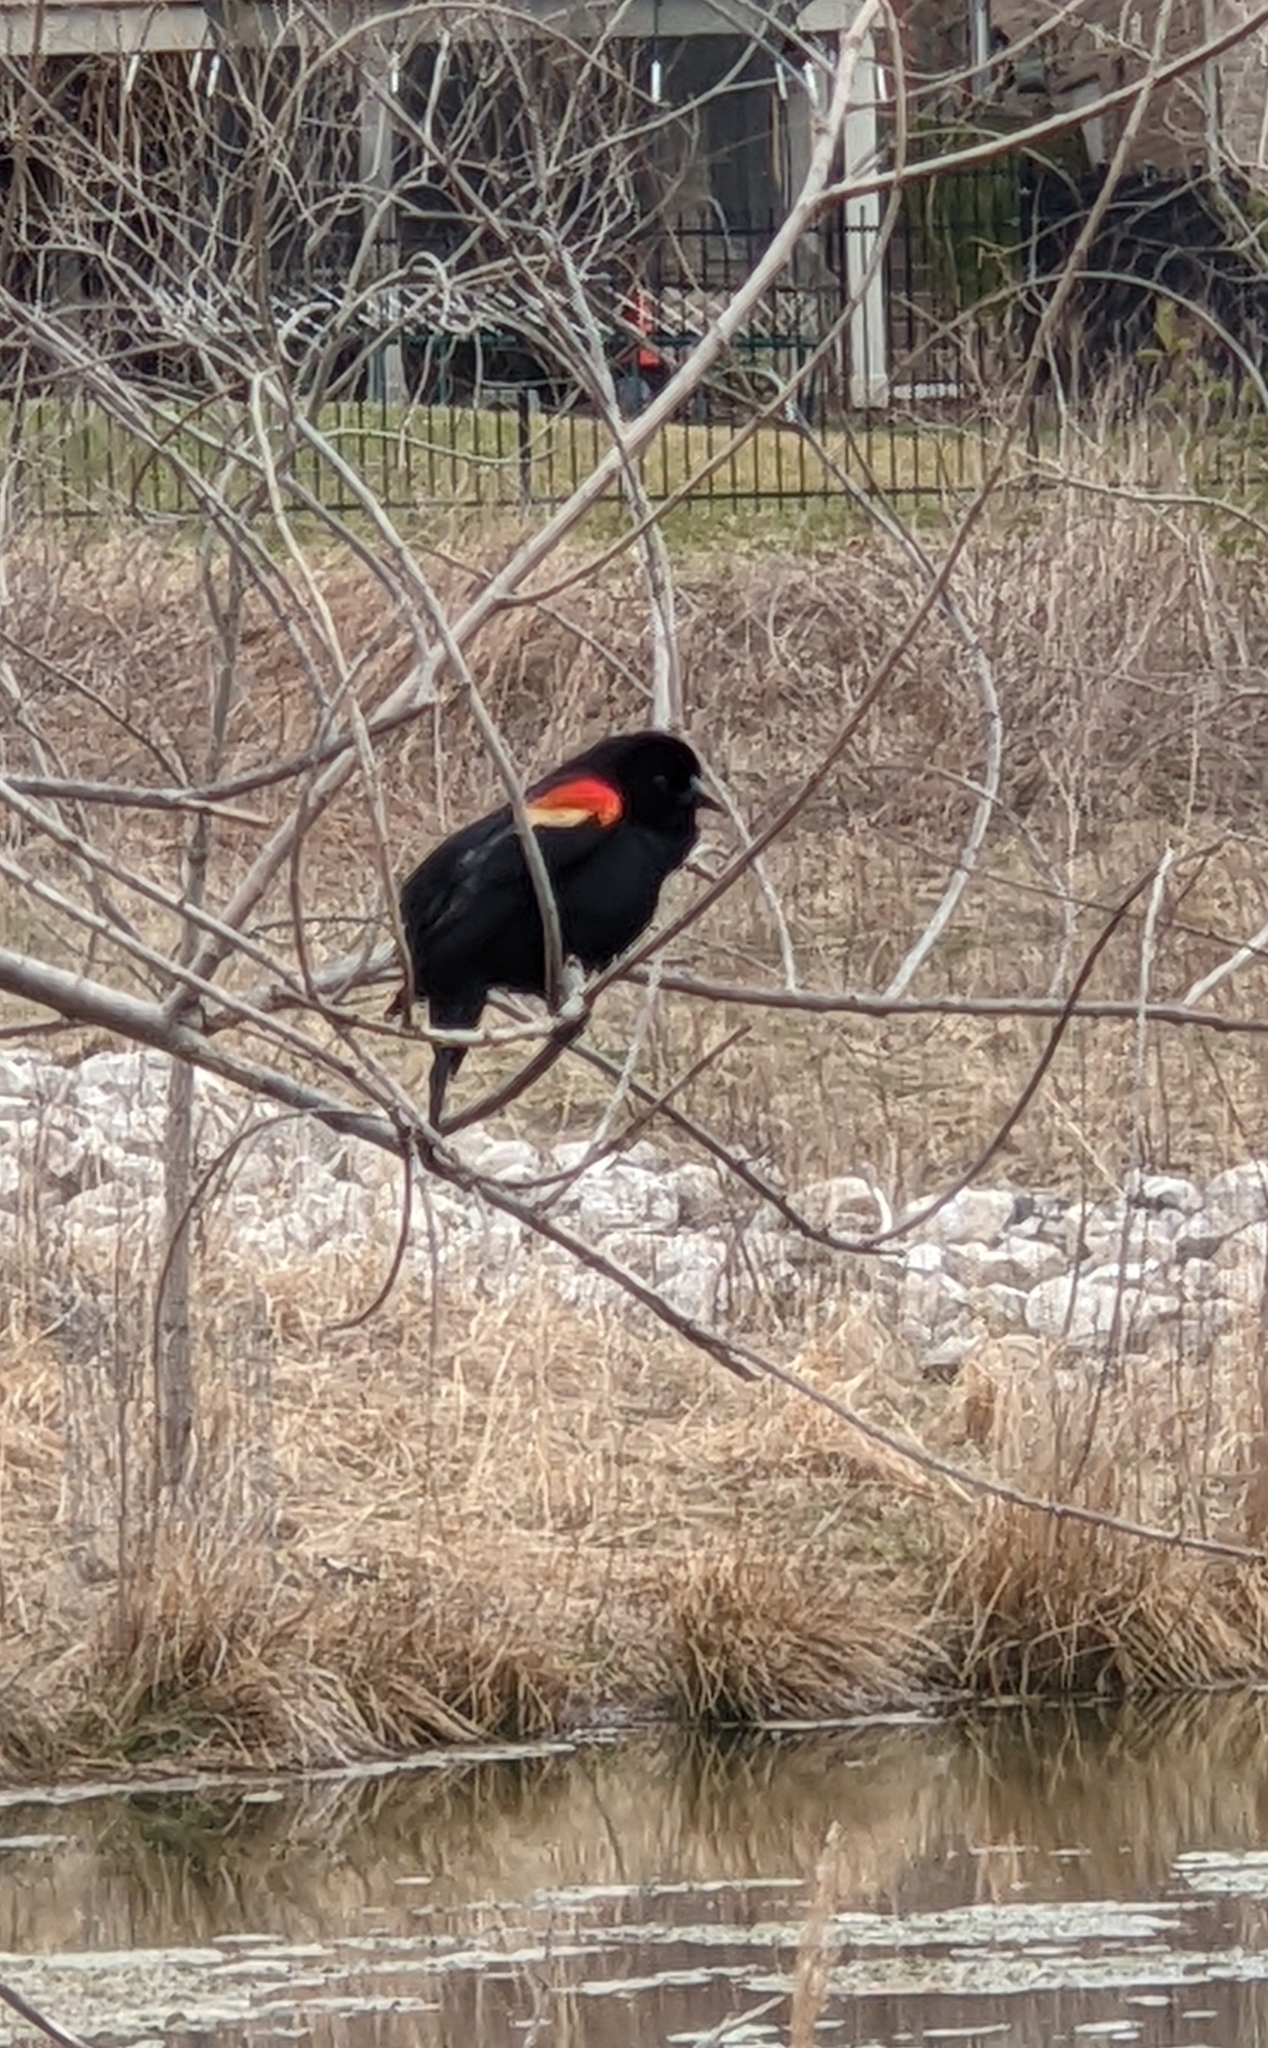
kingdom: Animalia
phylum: Chordata
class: Aves
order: Passeriformes
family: Icteridae
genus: Agelaius
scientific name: Agelaius phoeniceus
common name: Red-winged blackbird
